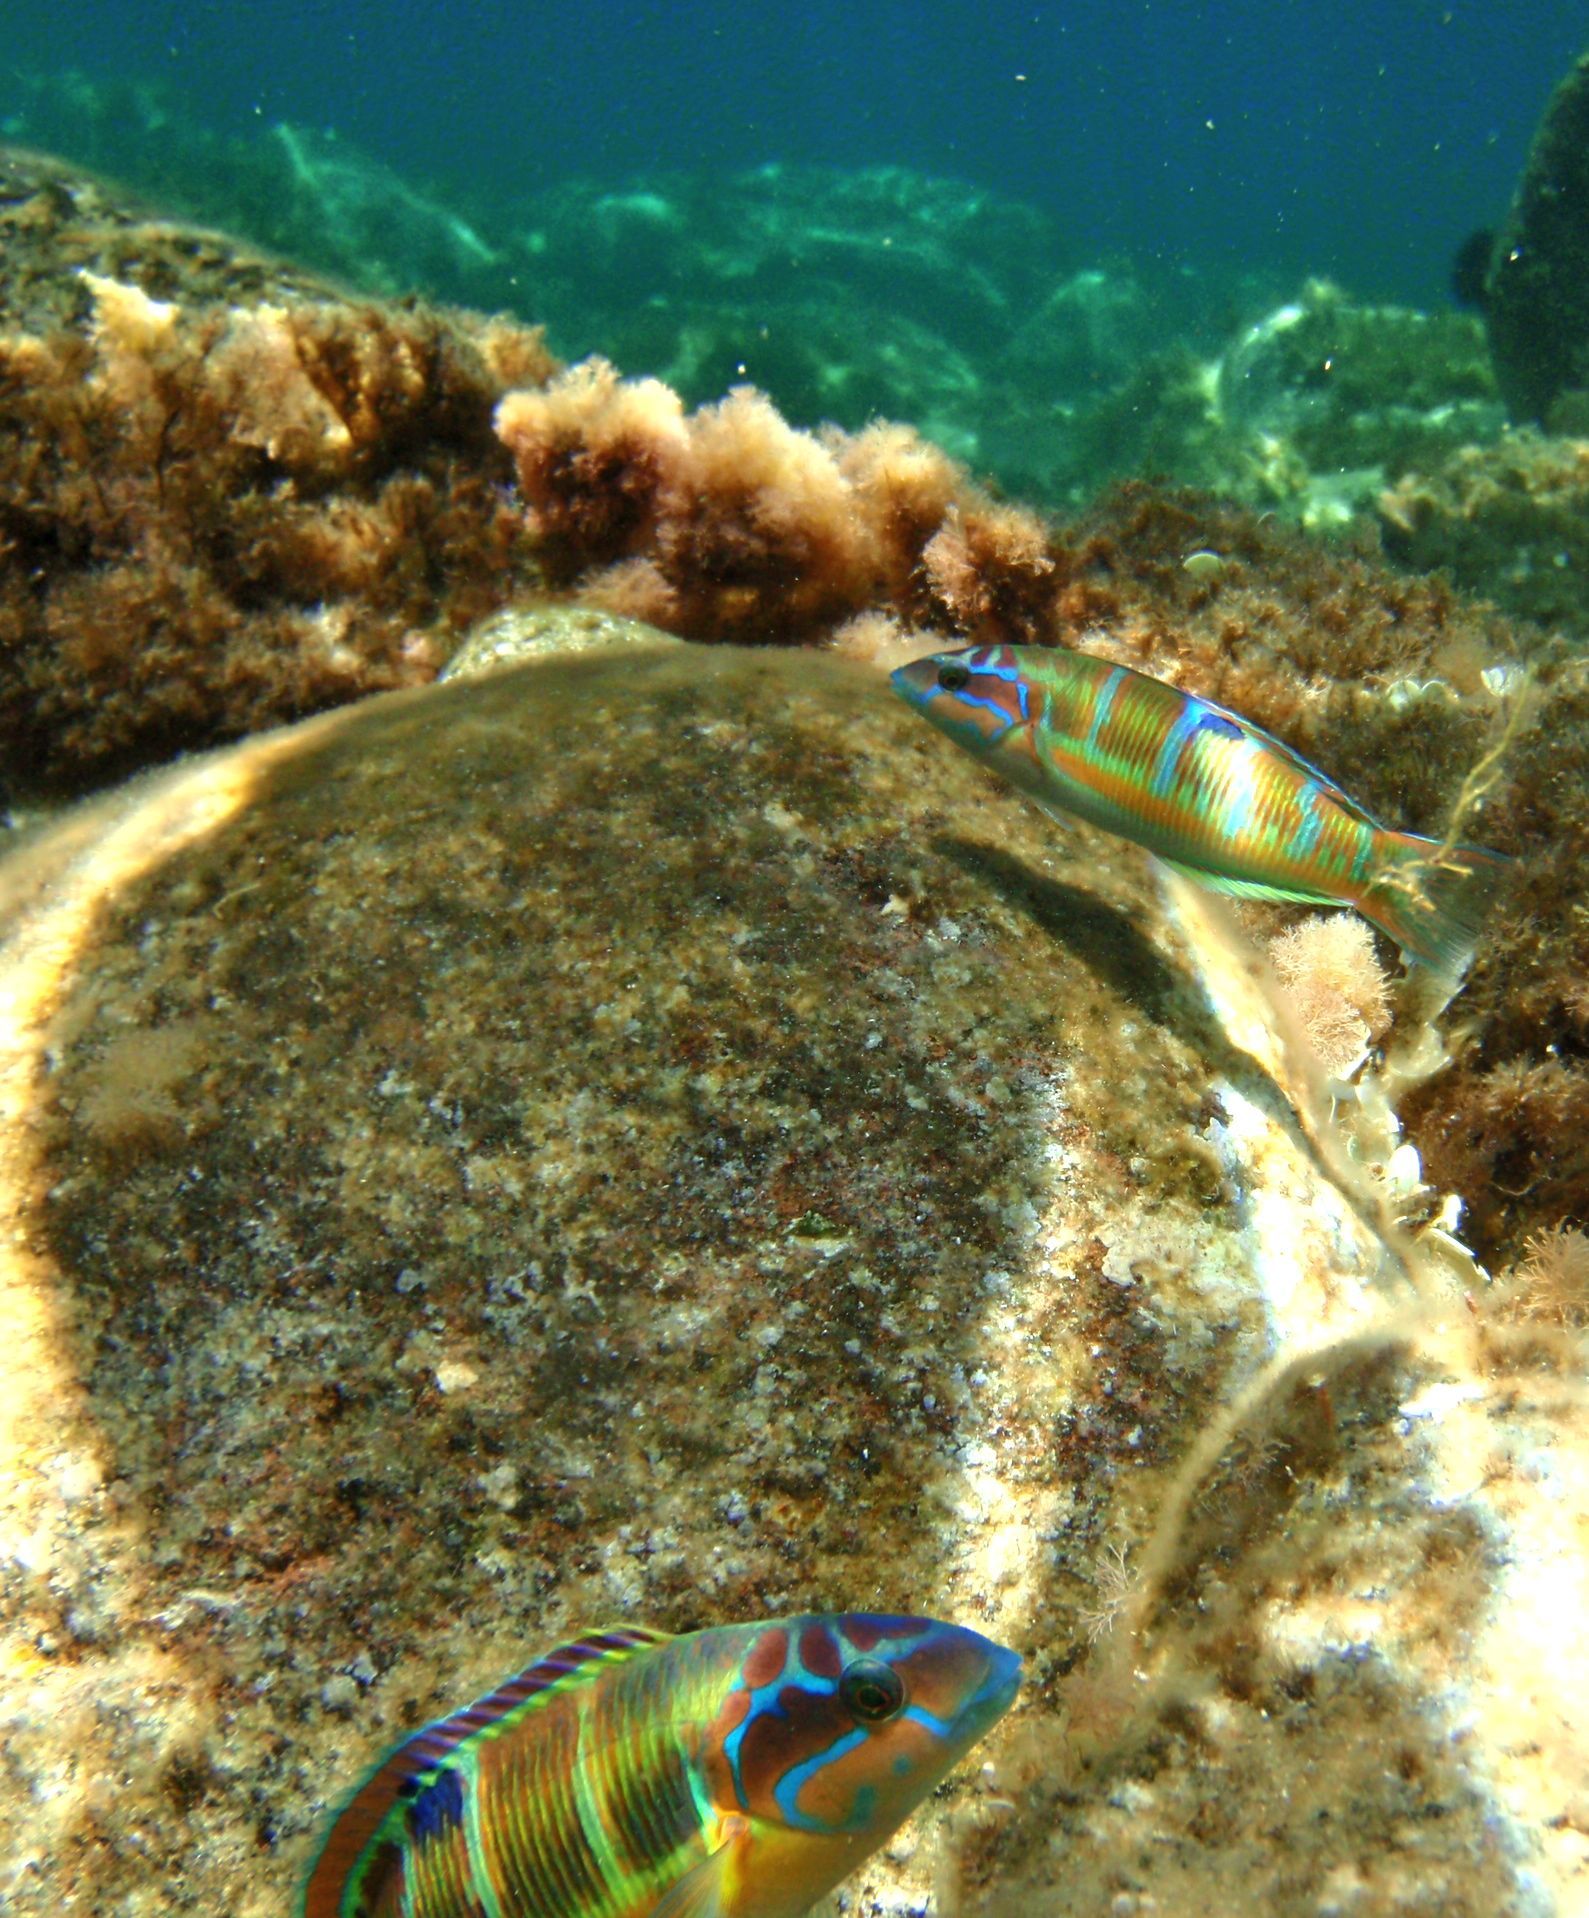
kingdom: Animalia
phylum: Chordata
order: Perciformes
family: Labridae
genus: Thalassoma
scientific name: Thalassoma pavo
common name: Ornate wrasse
